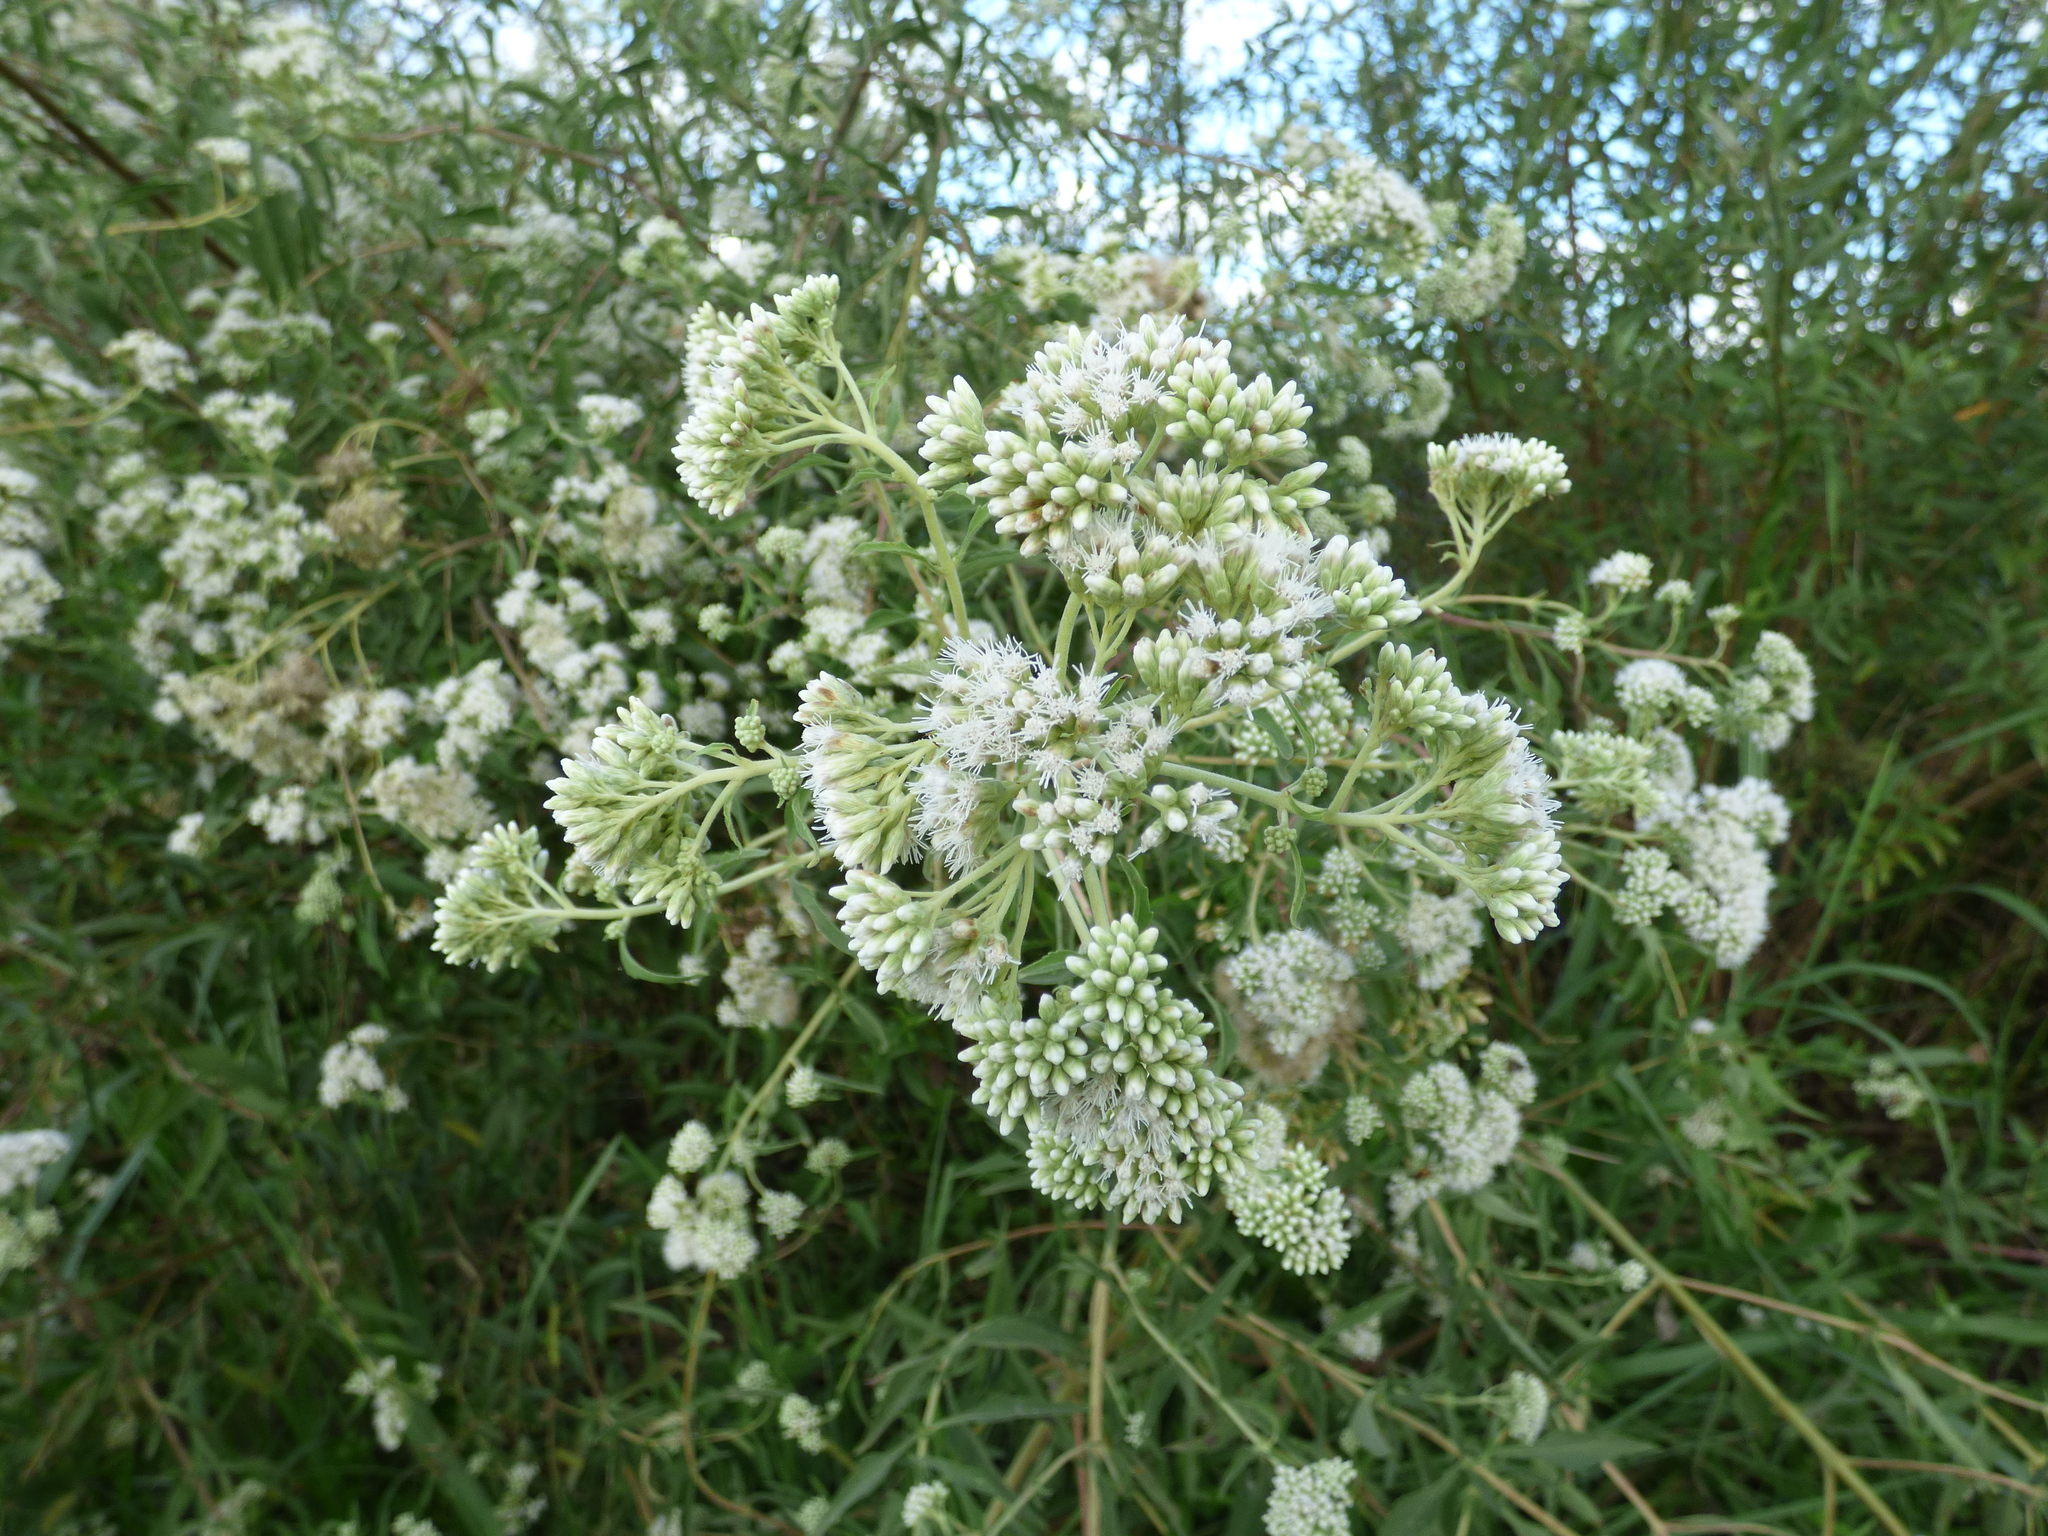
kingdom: Plantae
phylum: Tracheophyta
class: Magnoliopsida
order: Asterales
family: Asteraceae
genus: Austroeupatorium
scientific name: Austroeupatorium inulifolium
